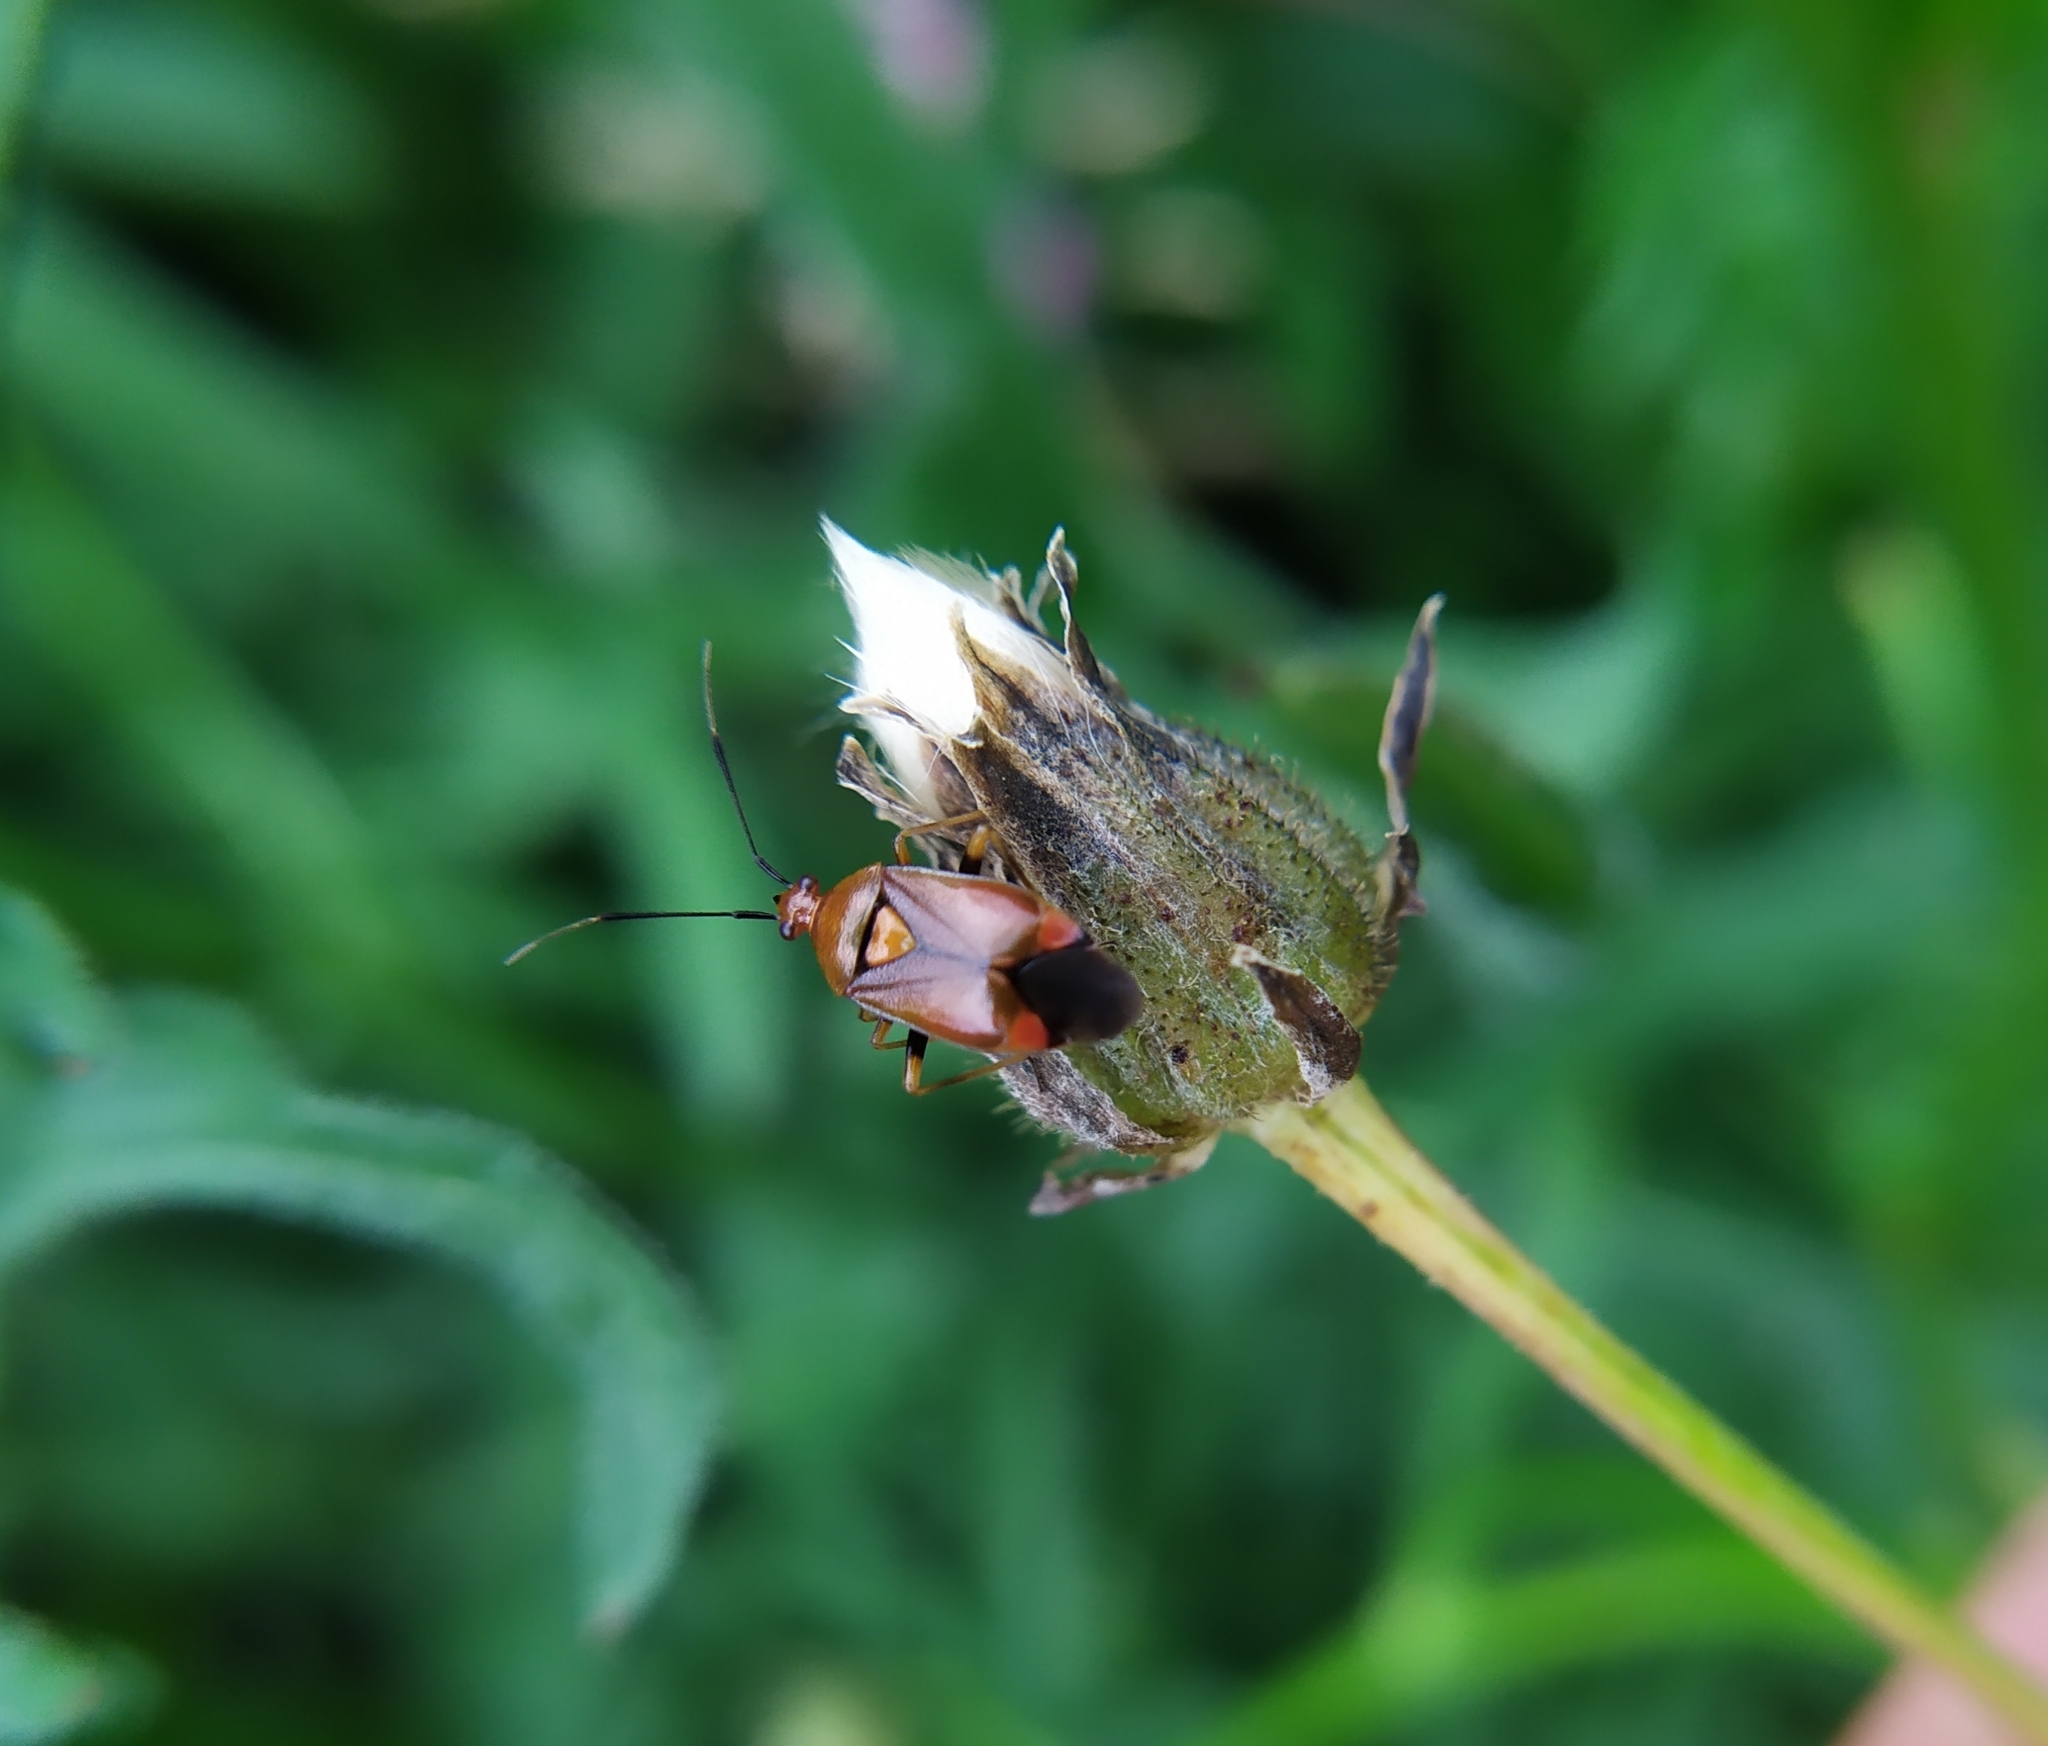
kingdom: Animalia
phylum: Arthropoda
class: Insecta
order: Hemiptera
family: Miridae
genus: Deraeocoris
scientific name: Deraeocoris ruber
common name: Plant bug
